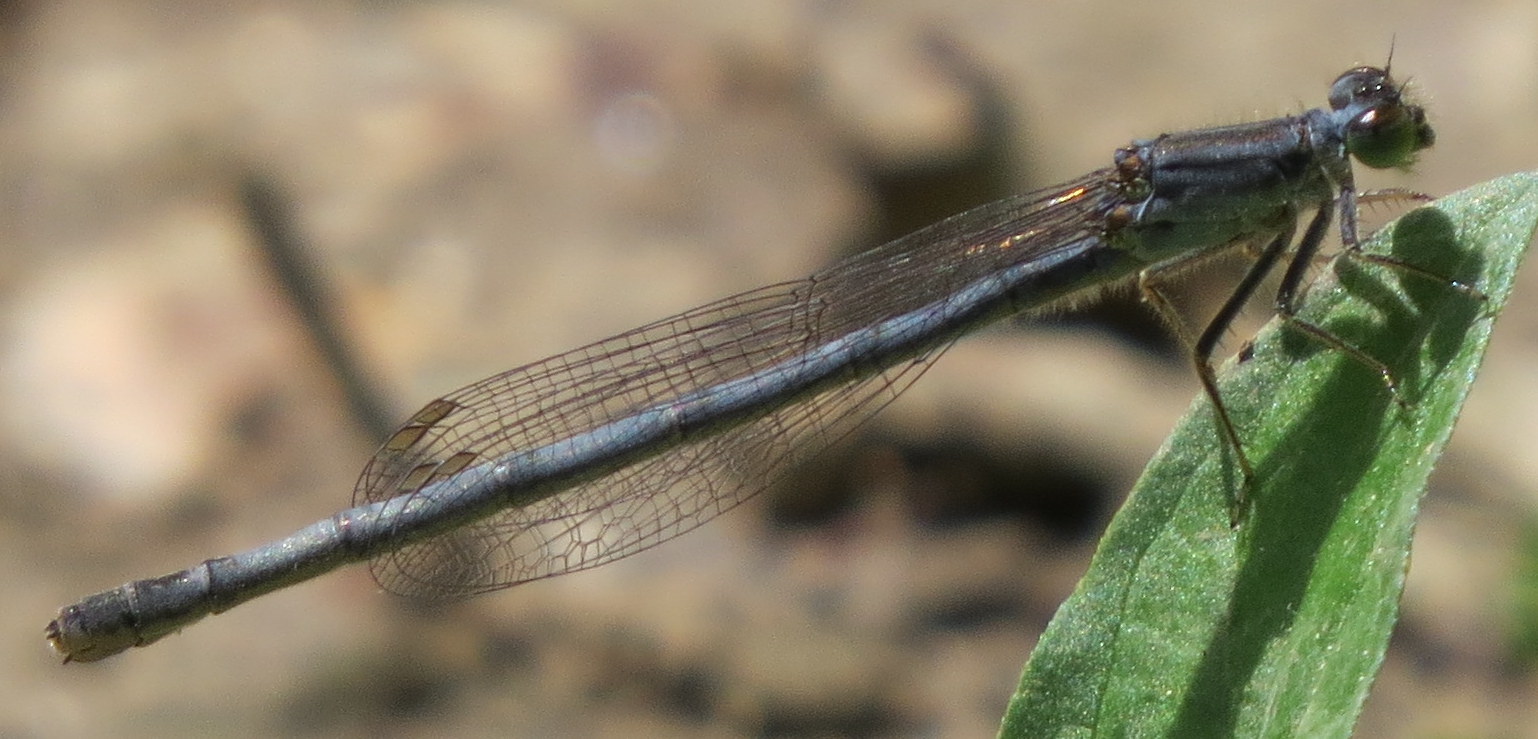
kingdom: Animalia
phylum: Arthropoda
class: Insecta
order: Odonata
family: Coenagrionidae
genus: Ischnura
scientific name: Ischnura verticalis
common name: Eastern forktail
